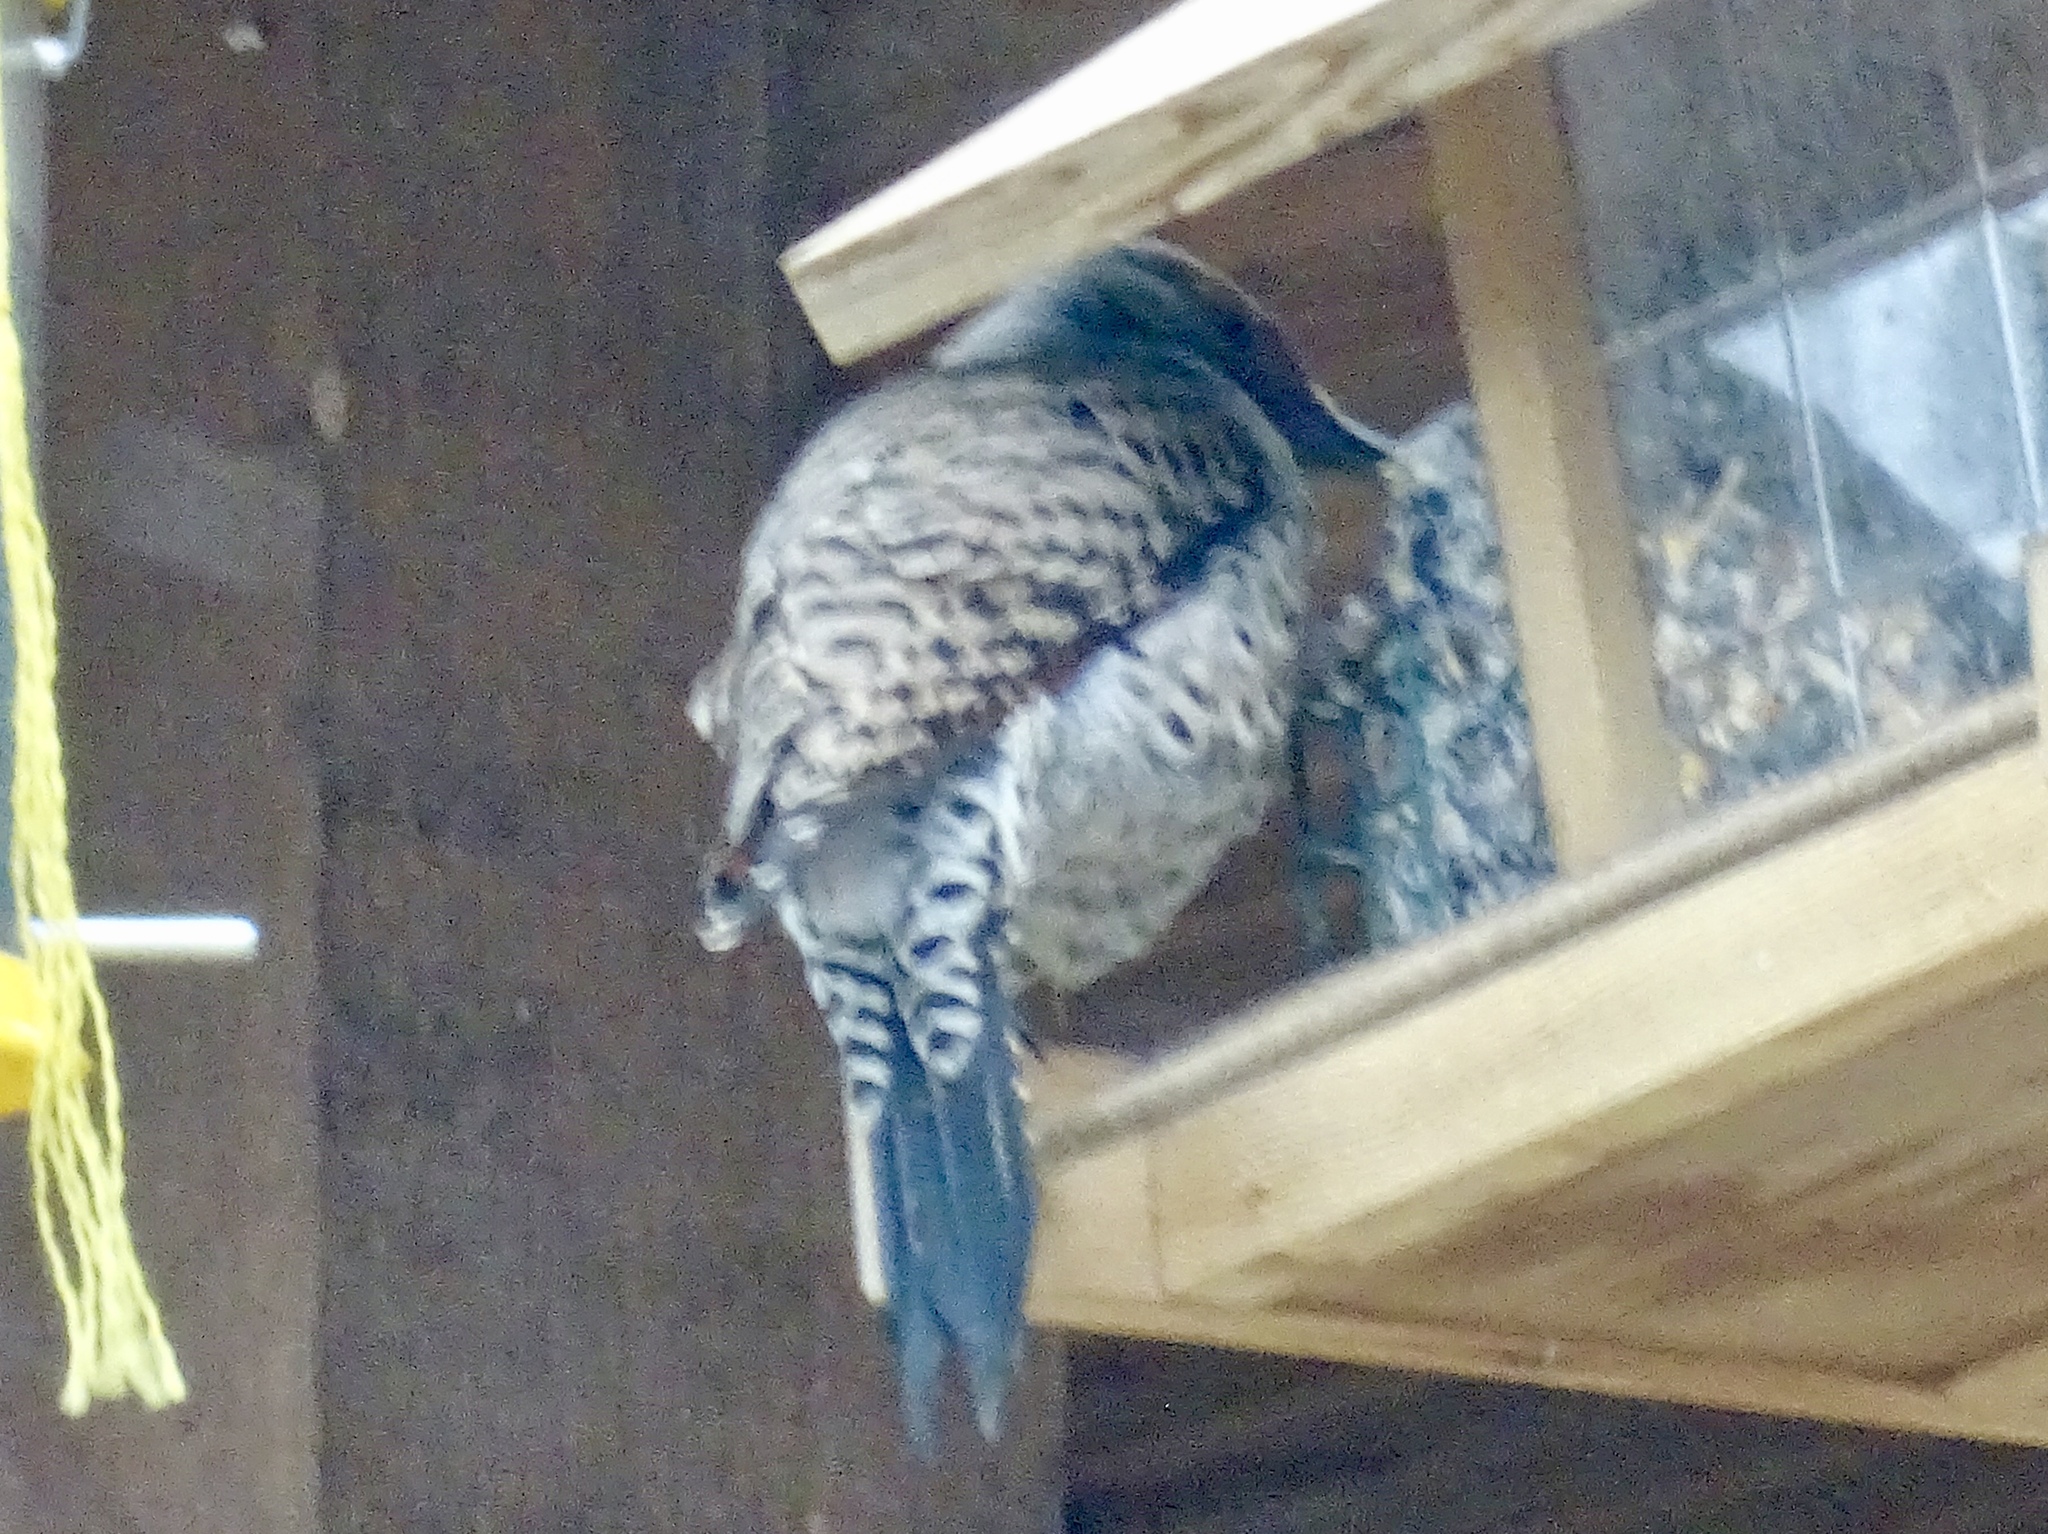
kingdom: Animalia
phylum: Chordata
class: Aves
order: Piciformes
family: Picidae
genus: Colaptes
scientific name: Colaptes auratus
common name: Northern flicker
